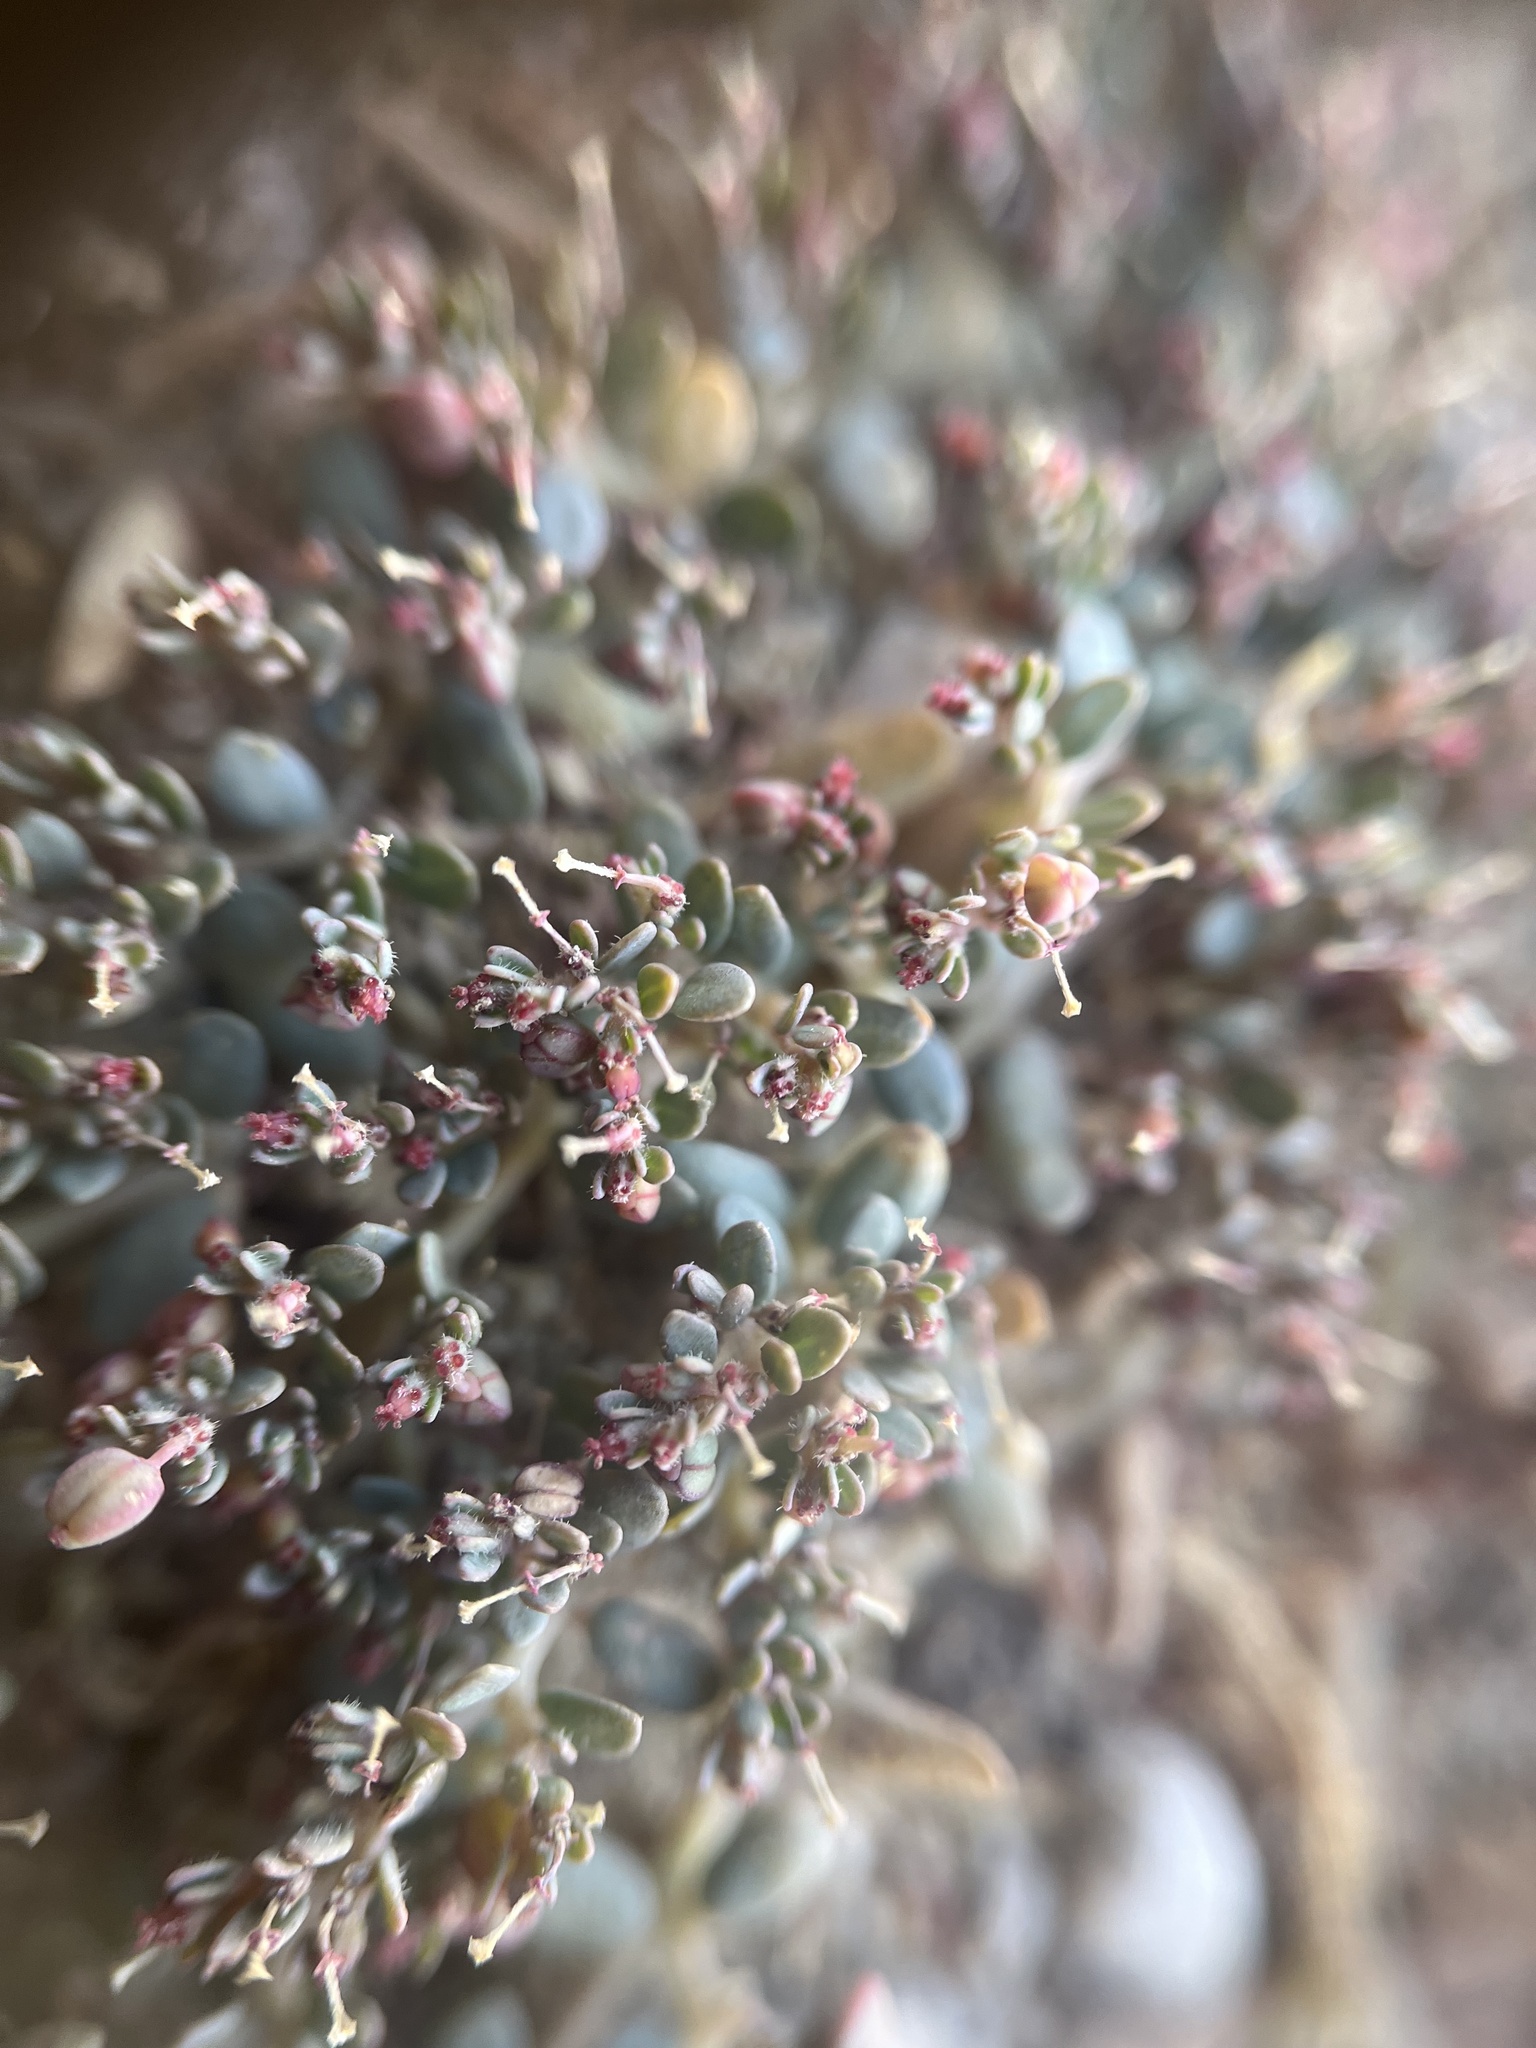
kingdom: Plantae
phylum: Tracheophyta
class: Magnoliopsida
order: Malpighiales
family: Euphorbiaceae
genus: Euphorbia
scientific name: Euphorbia micromera
